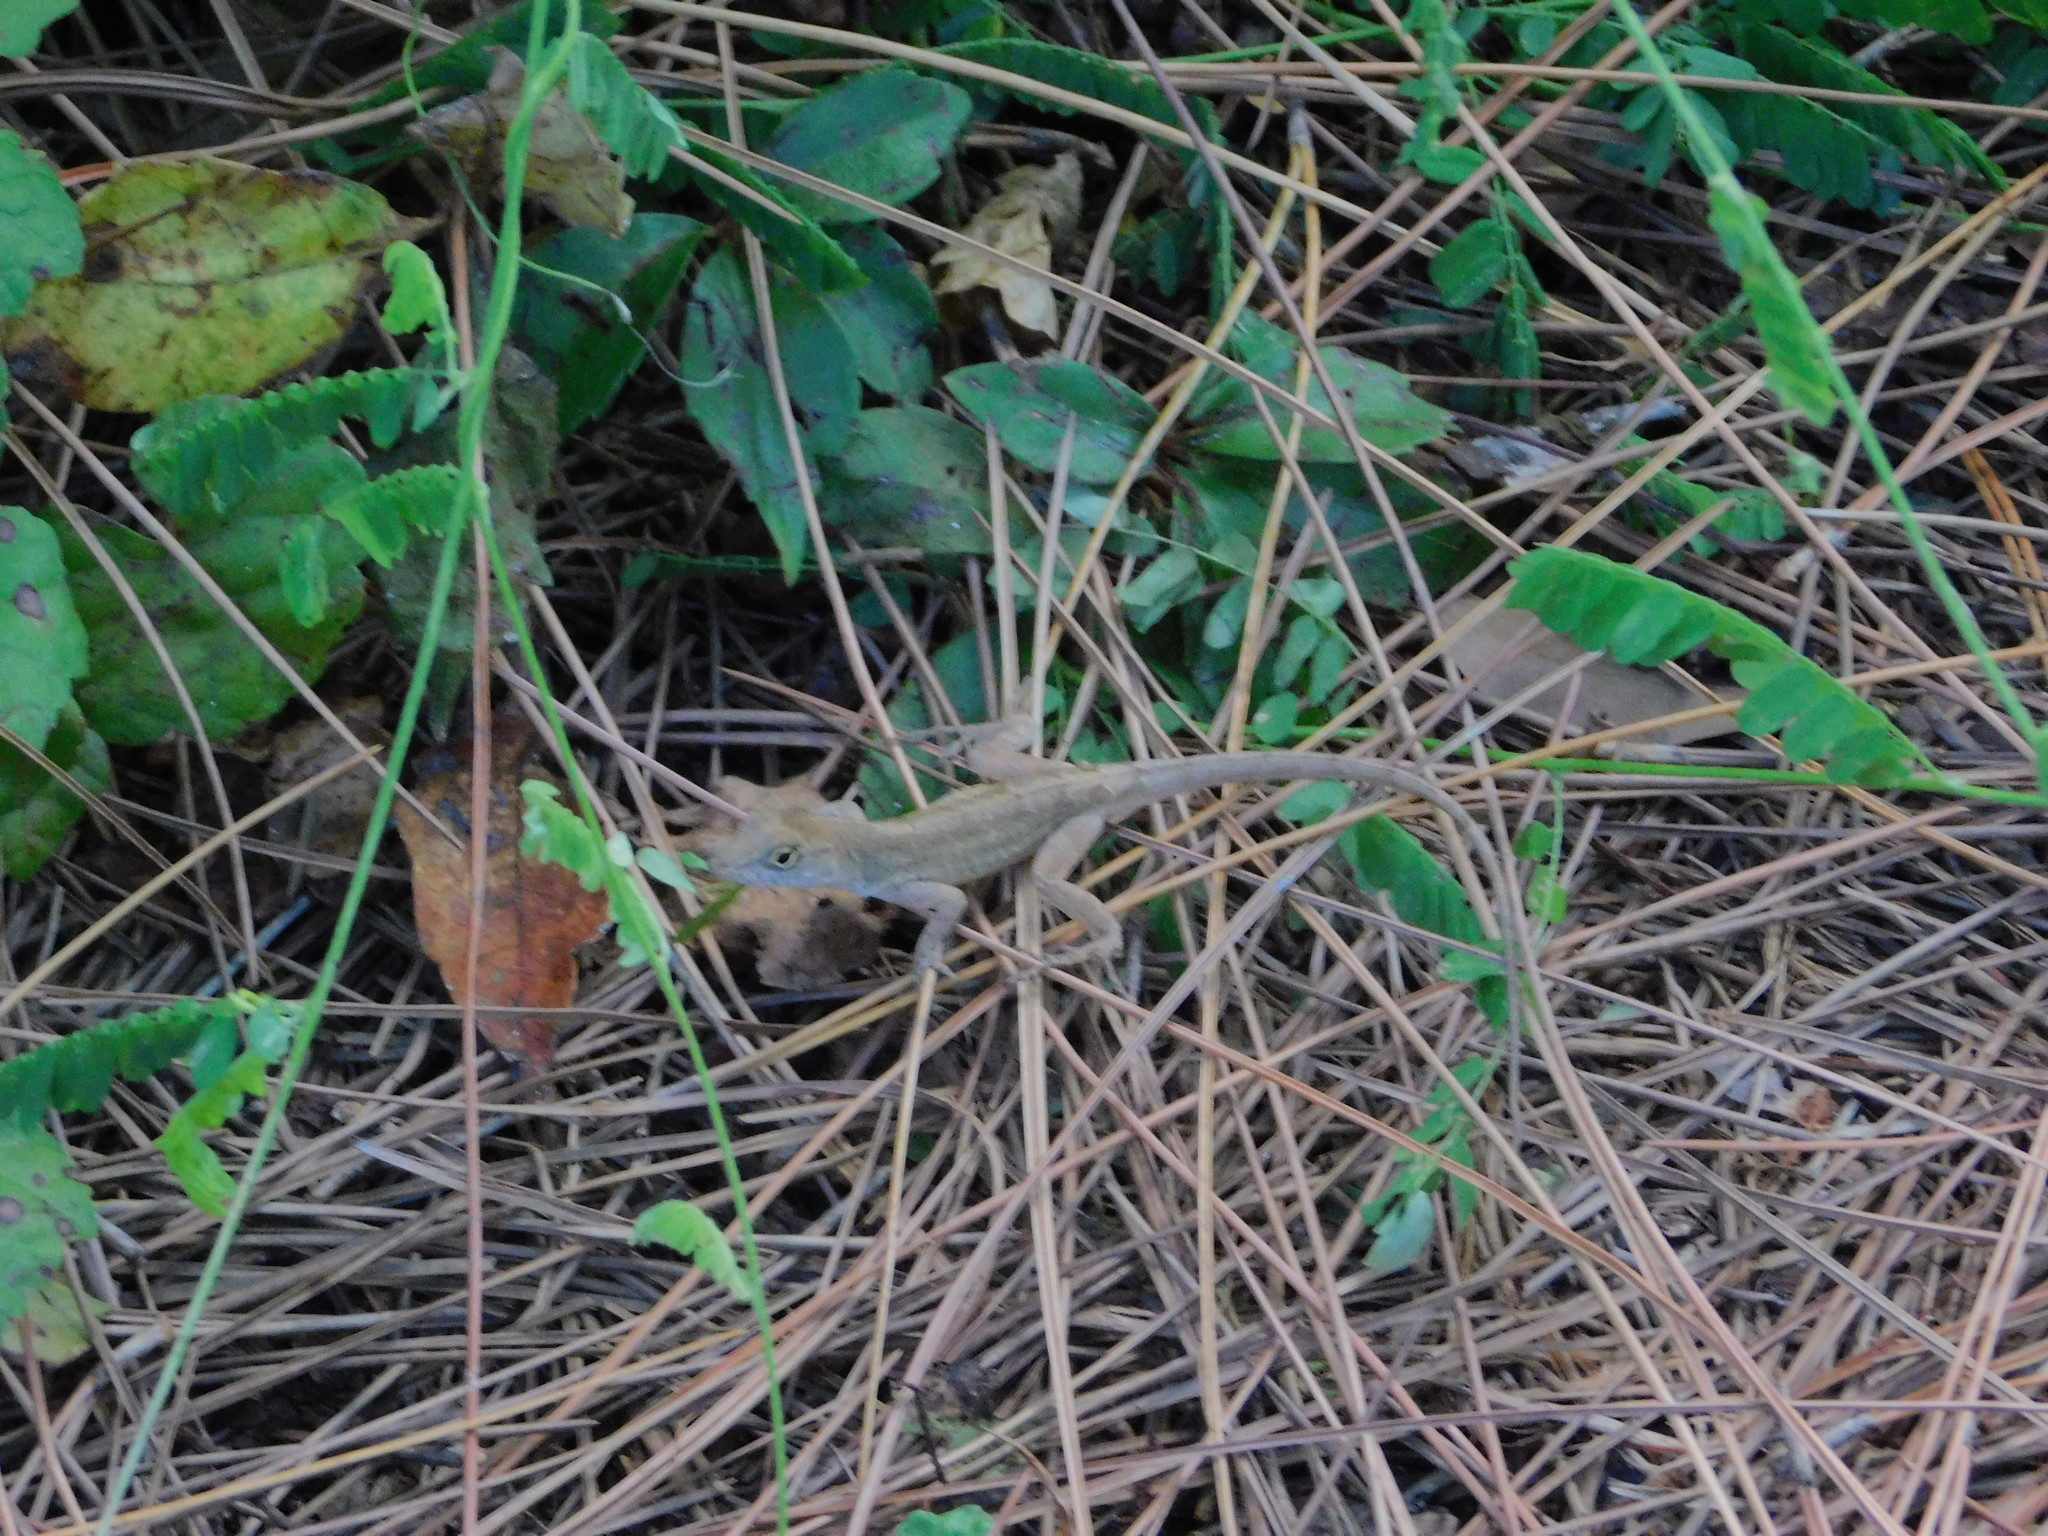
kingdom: Animalia
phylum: Chordata
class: Squamata
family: Dactyloidae
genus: Anolis
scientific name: Anolis sagrei
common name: Brown anole
